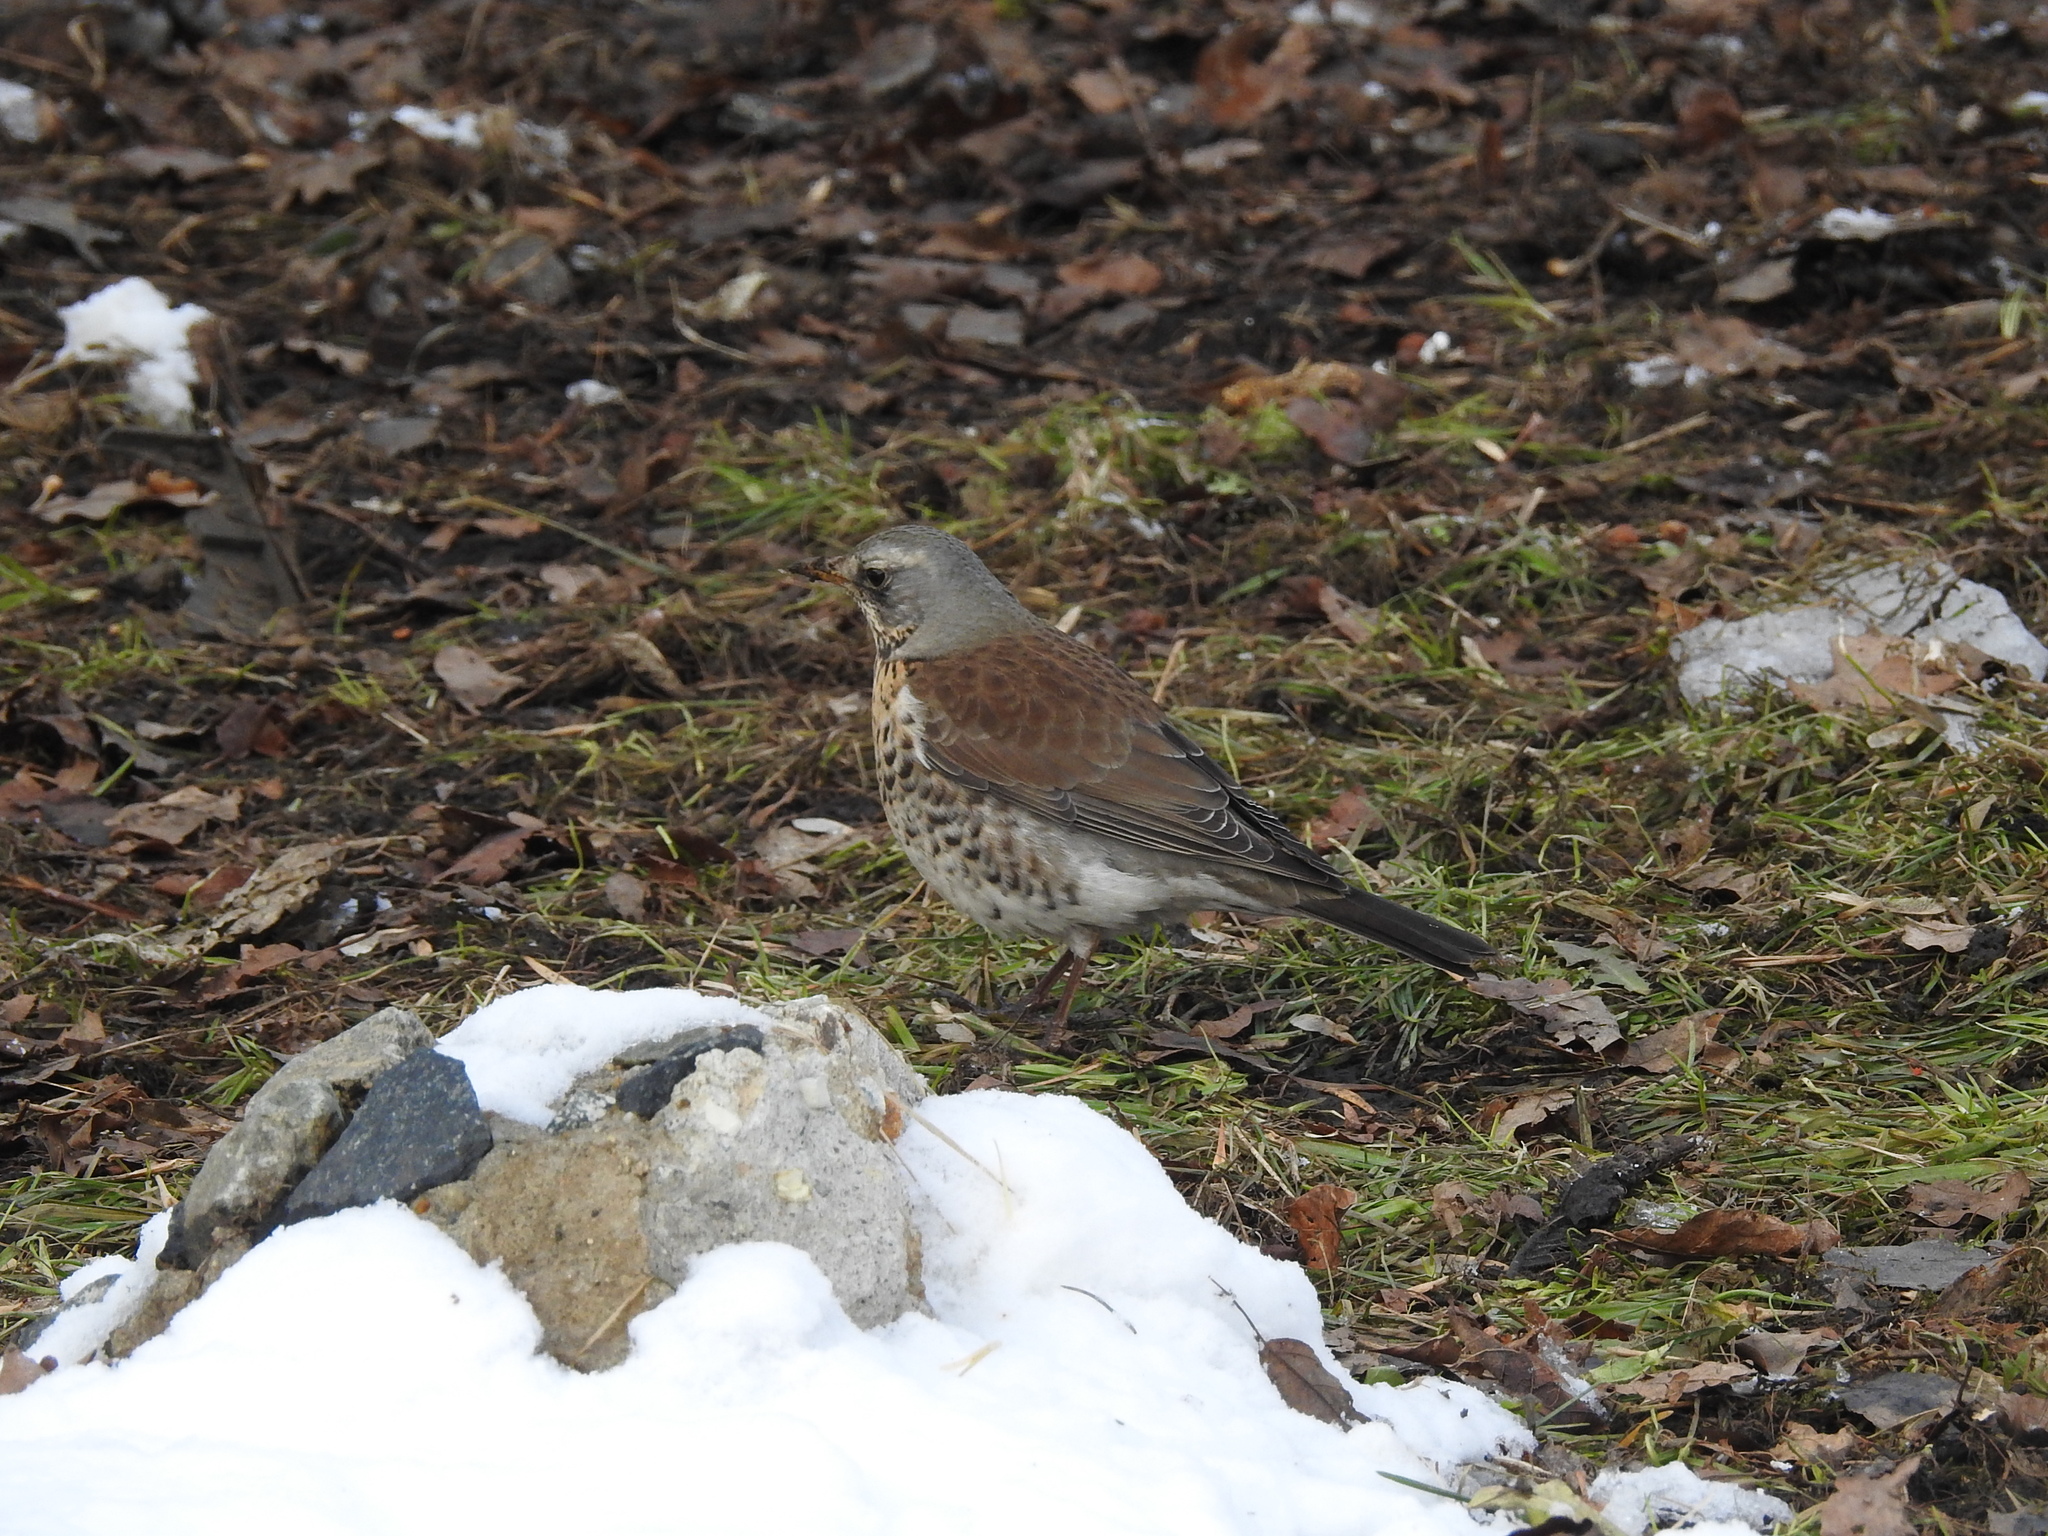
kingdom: Animalia
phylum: Chordata
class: Aves
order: Passeriformes
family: Turdidae
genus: Turdus
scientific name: Turdus pilaris
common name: Fieldfare
